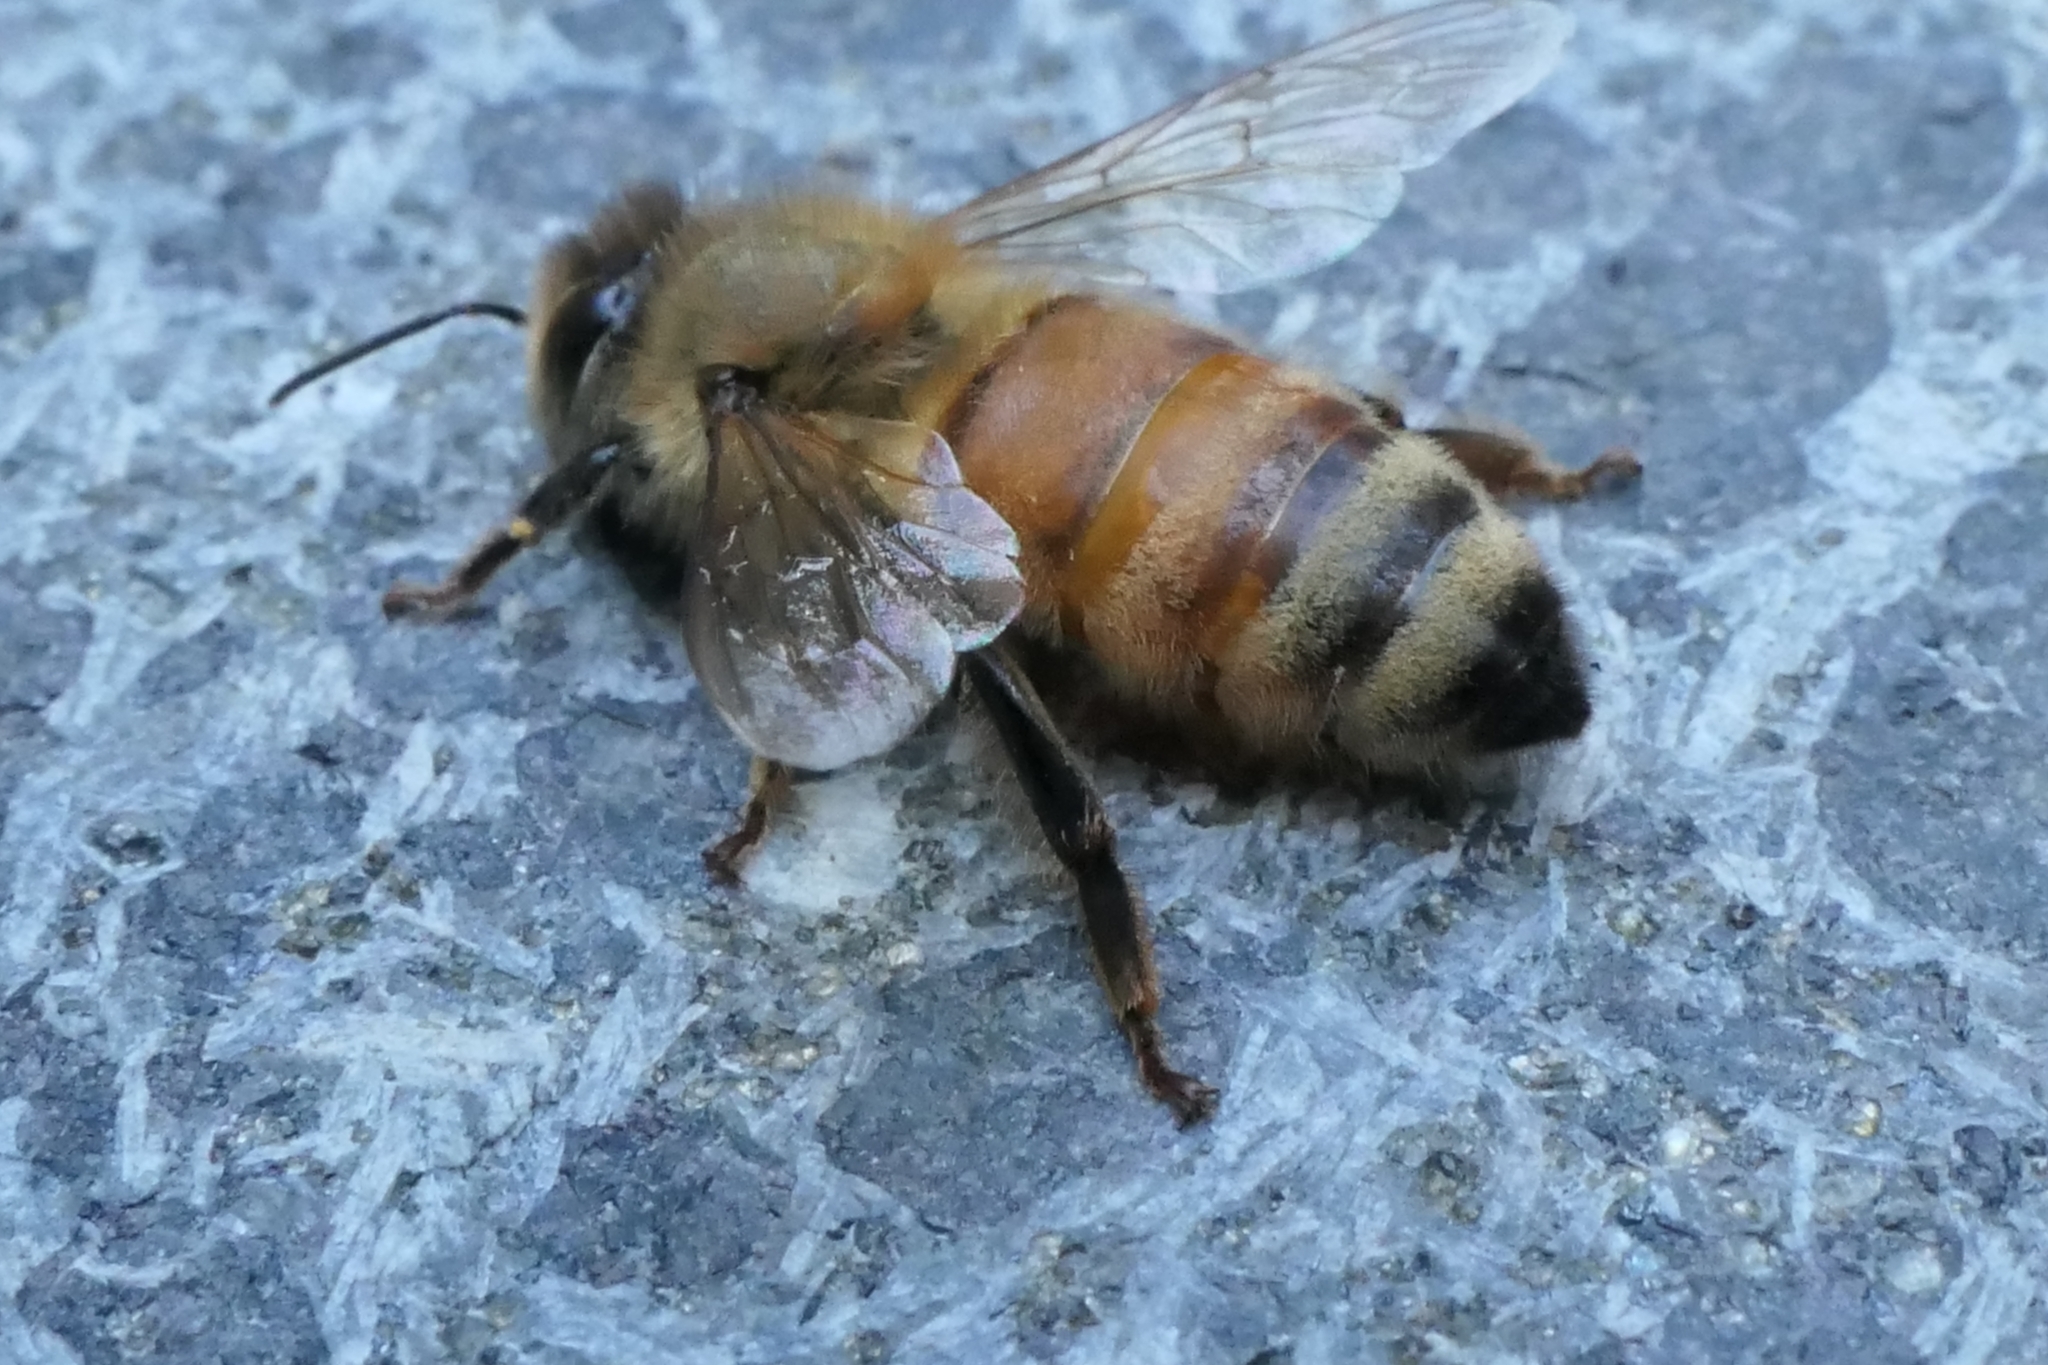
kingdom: Animalia
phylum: Arthropoda
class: Insecta
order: Hymenoptera
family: Apidae
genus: Apis
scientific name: Apis mellifera
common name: Honey bee
